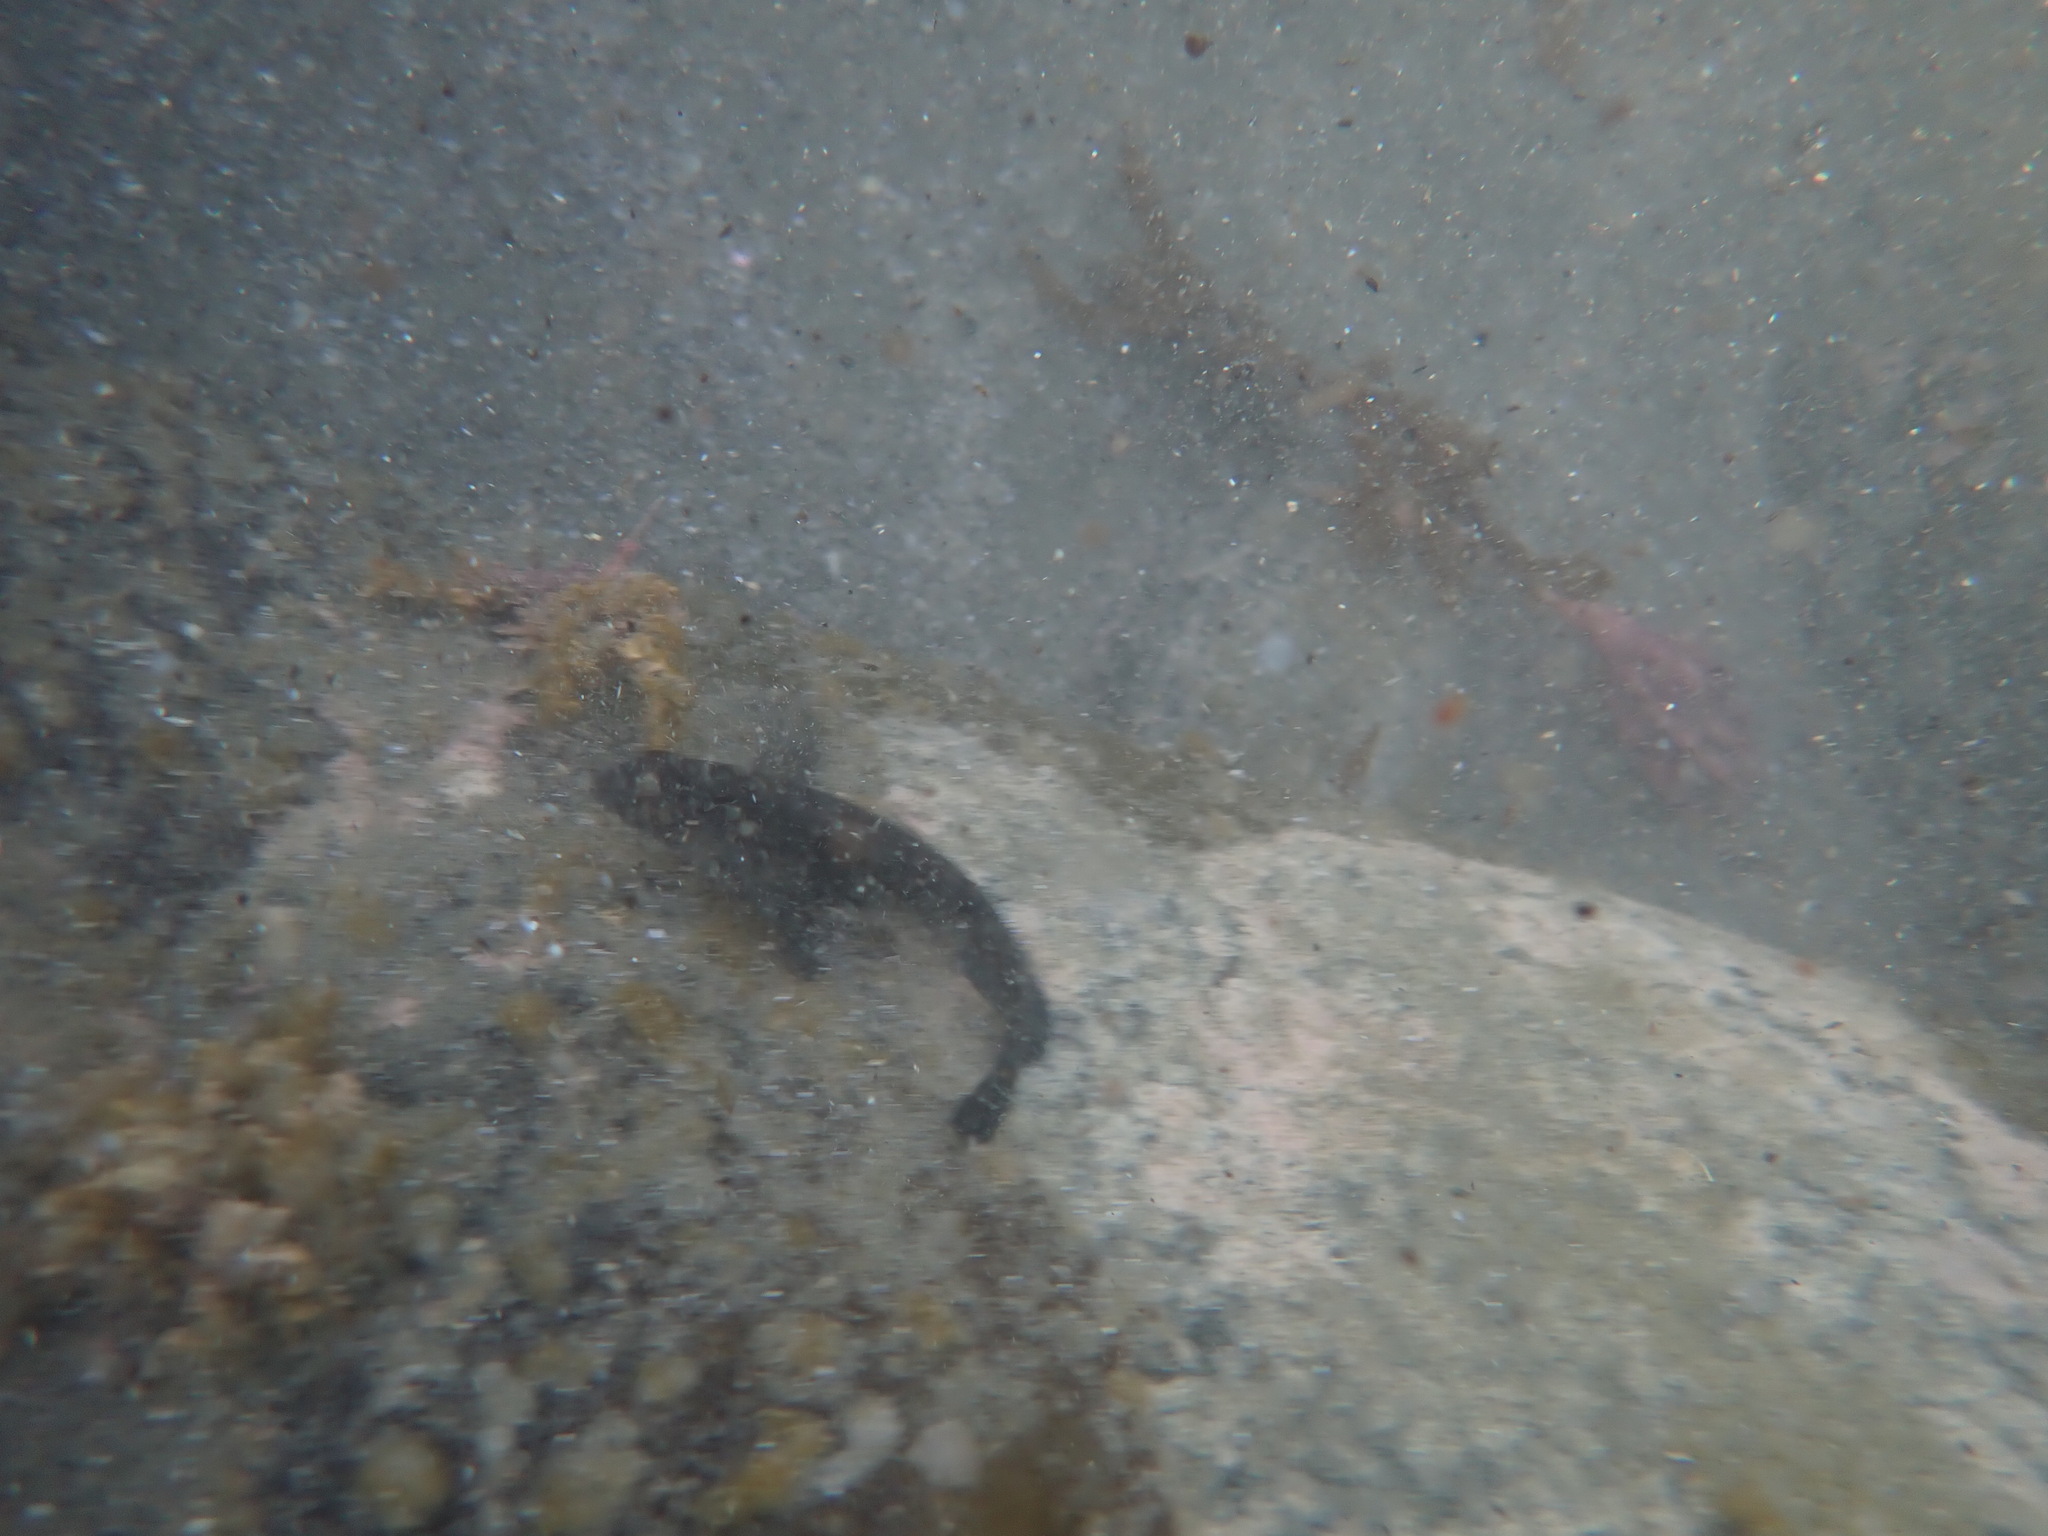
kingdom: Animalia
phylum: Chordata
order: Perciformes
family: Tripterygiidae
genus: Forsterygion
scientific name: Forsterygion lapillum
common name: Common triplefin
